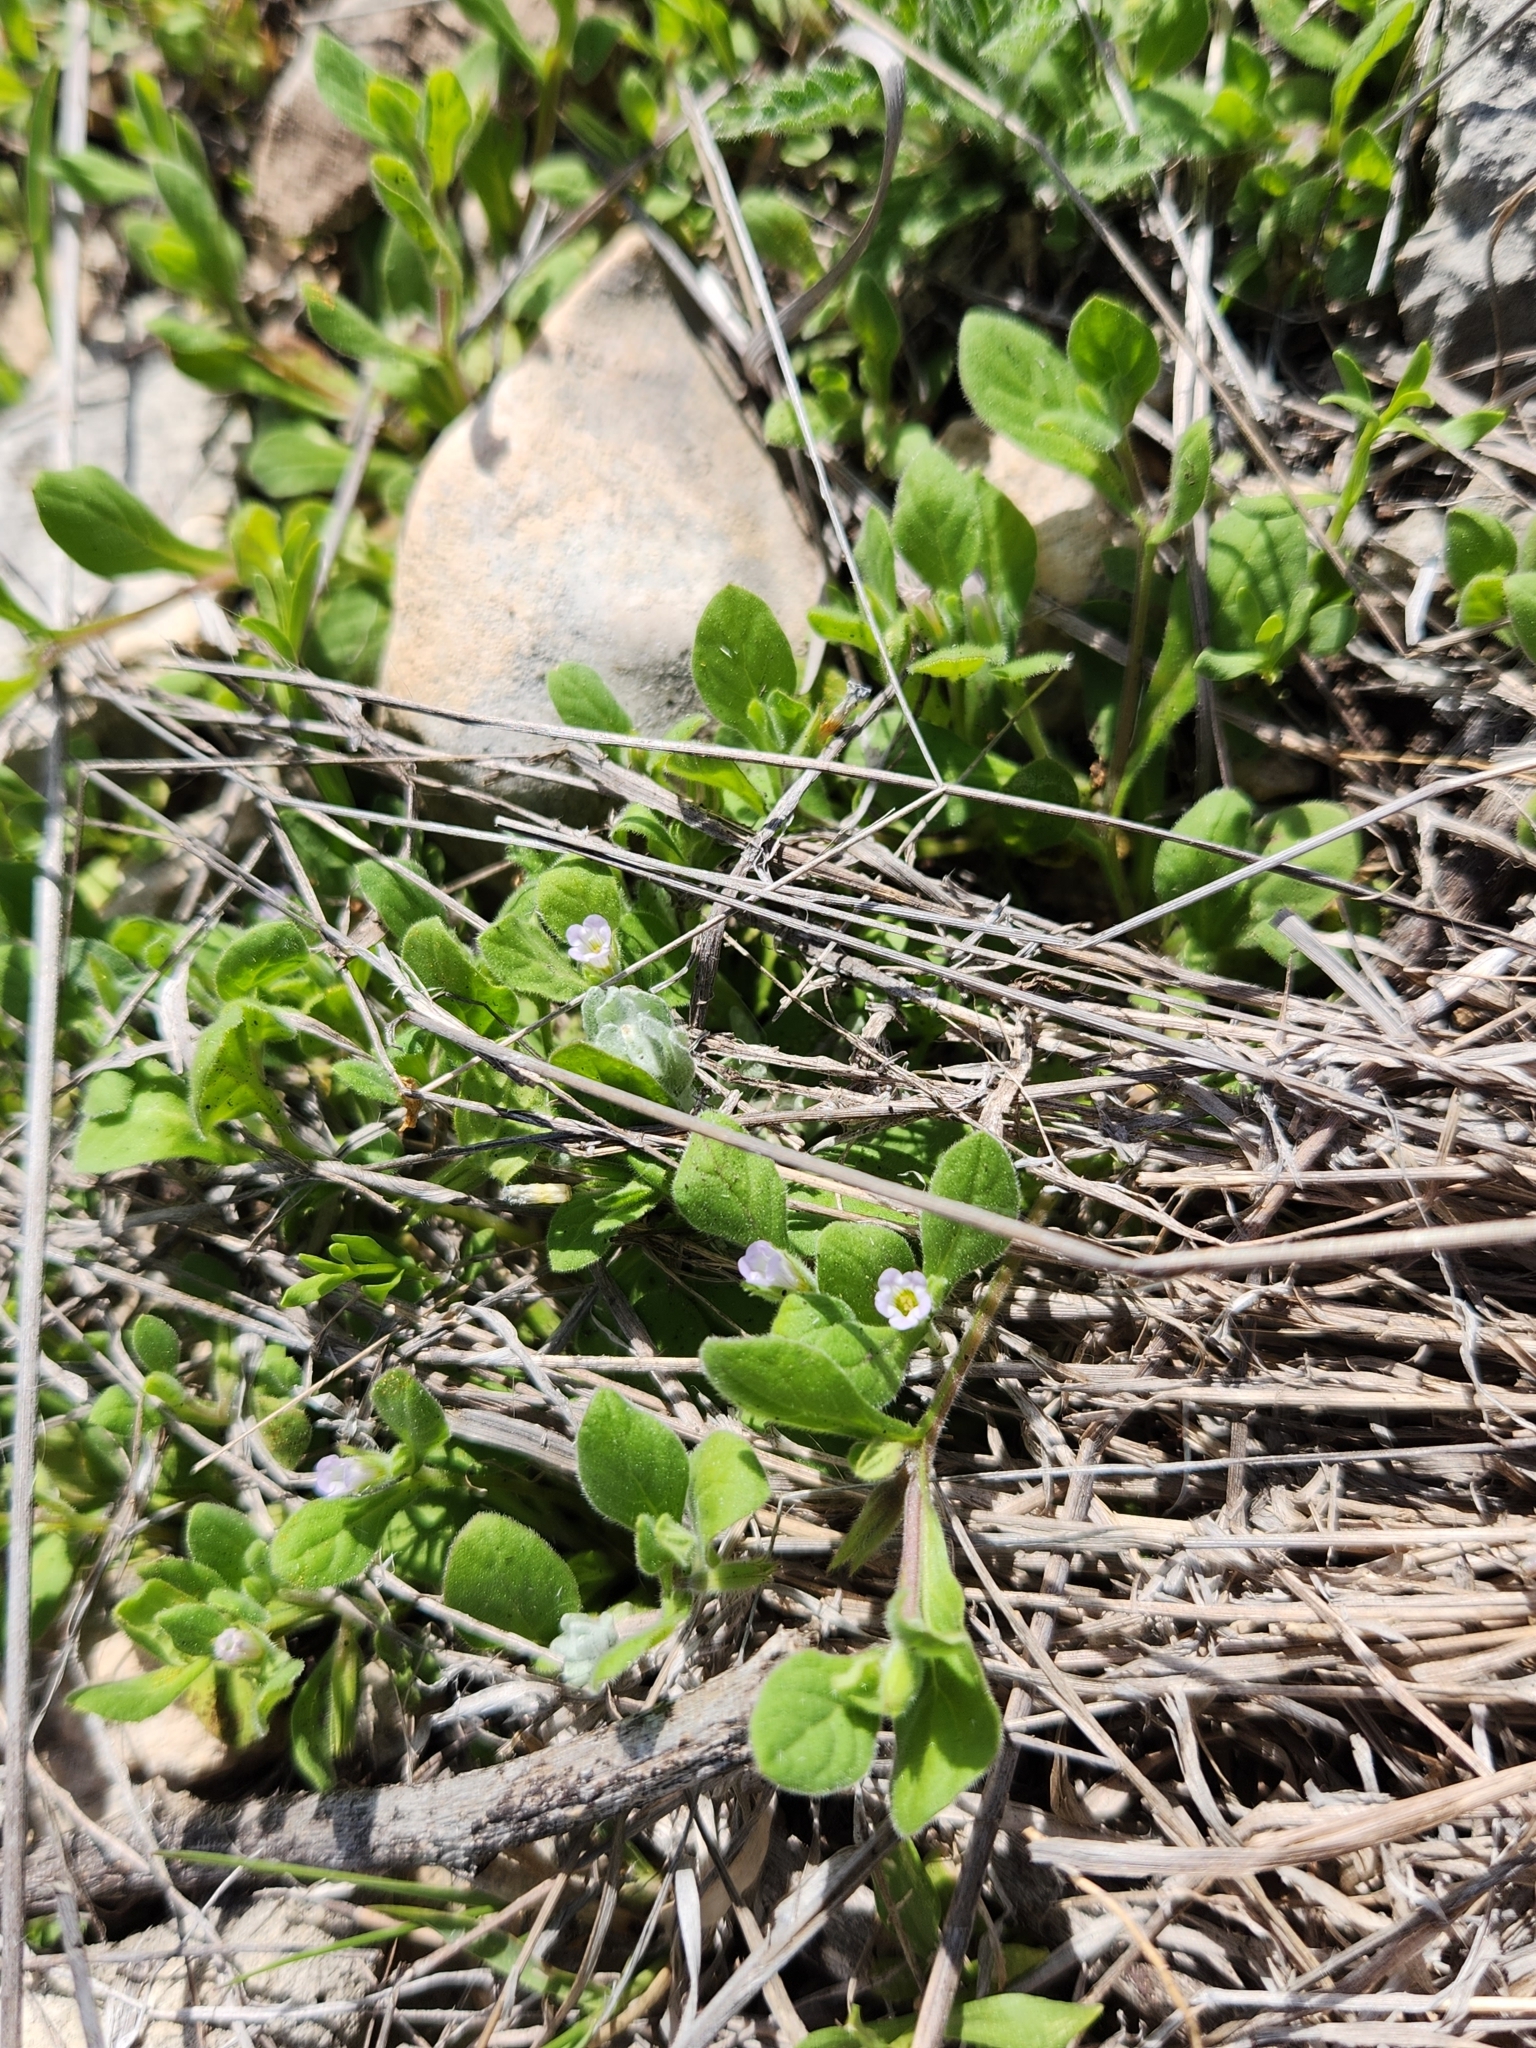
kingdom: Plantae
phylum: Tracheophyta
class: Magnoliopsida
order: Boraginales
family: Namaceae
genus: Nama
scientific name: Nama jamaicensis
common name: Jamaicanweed
